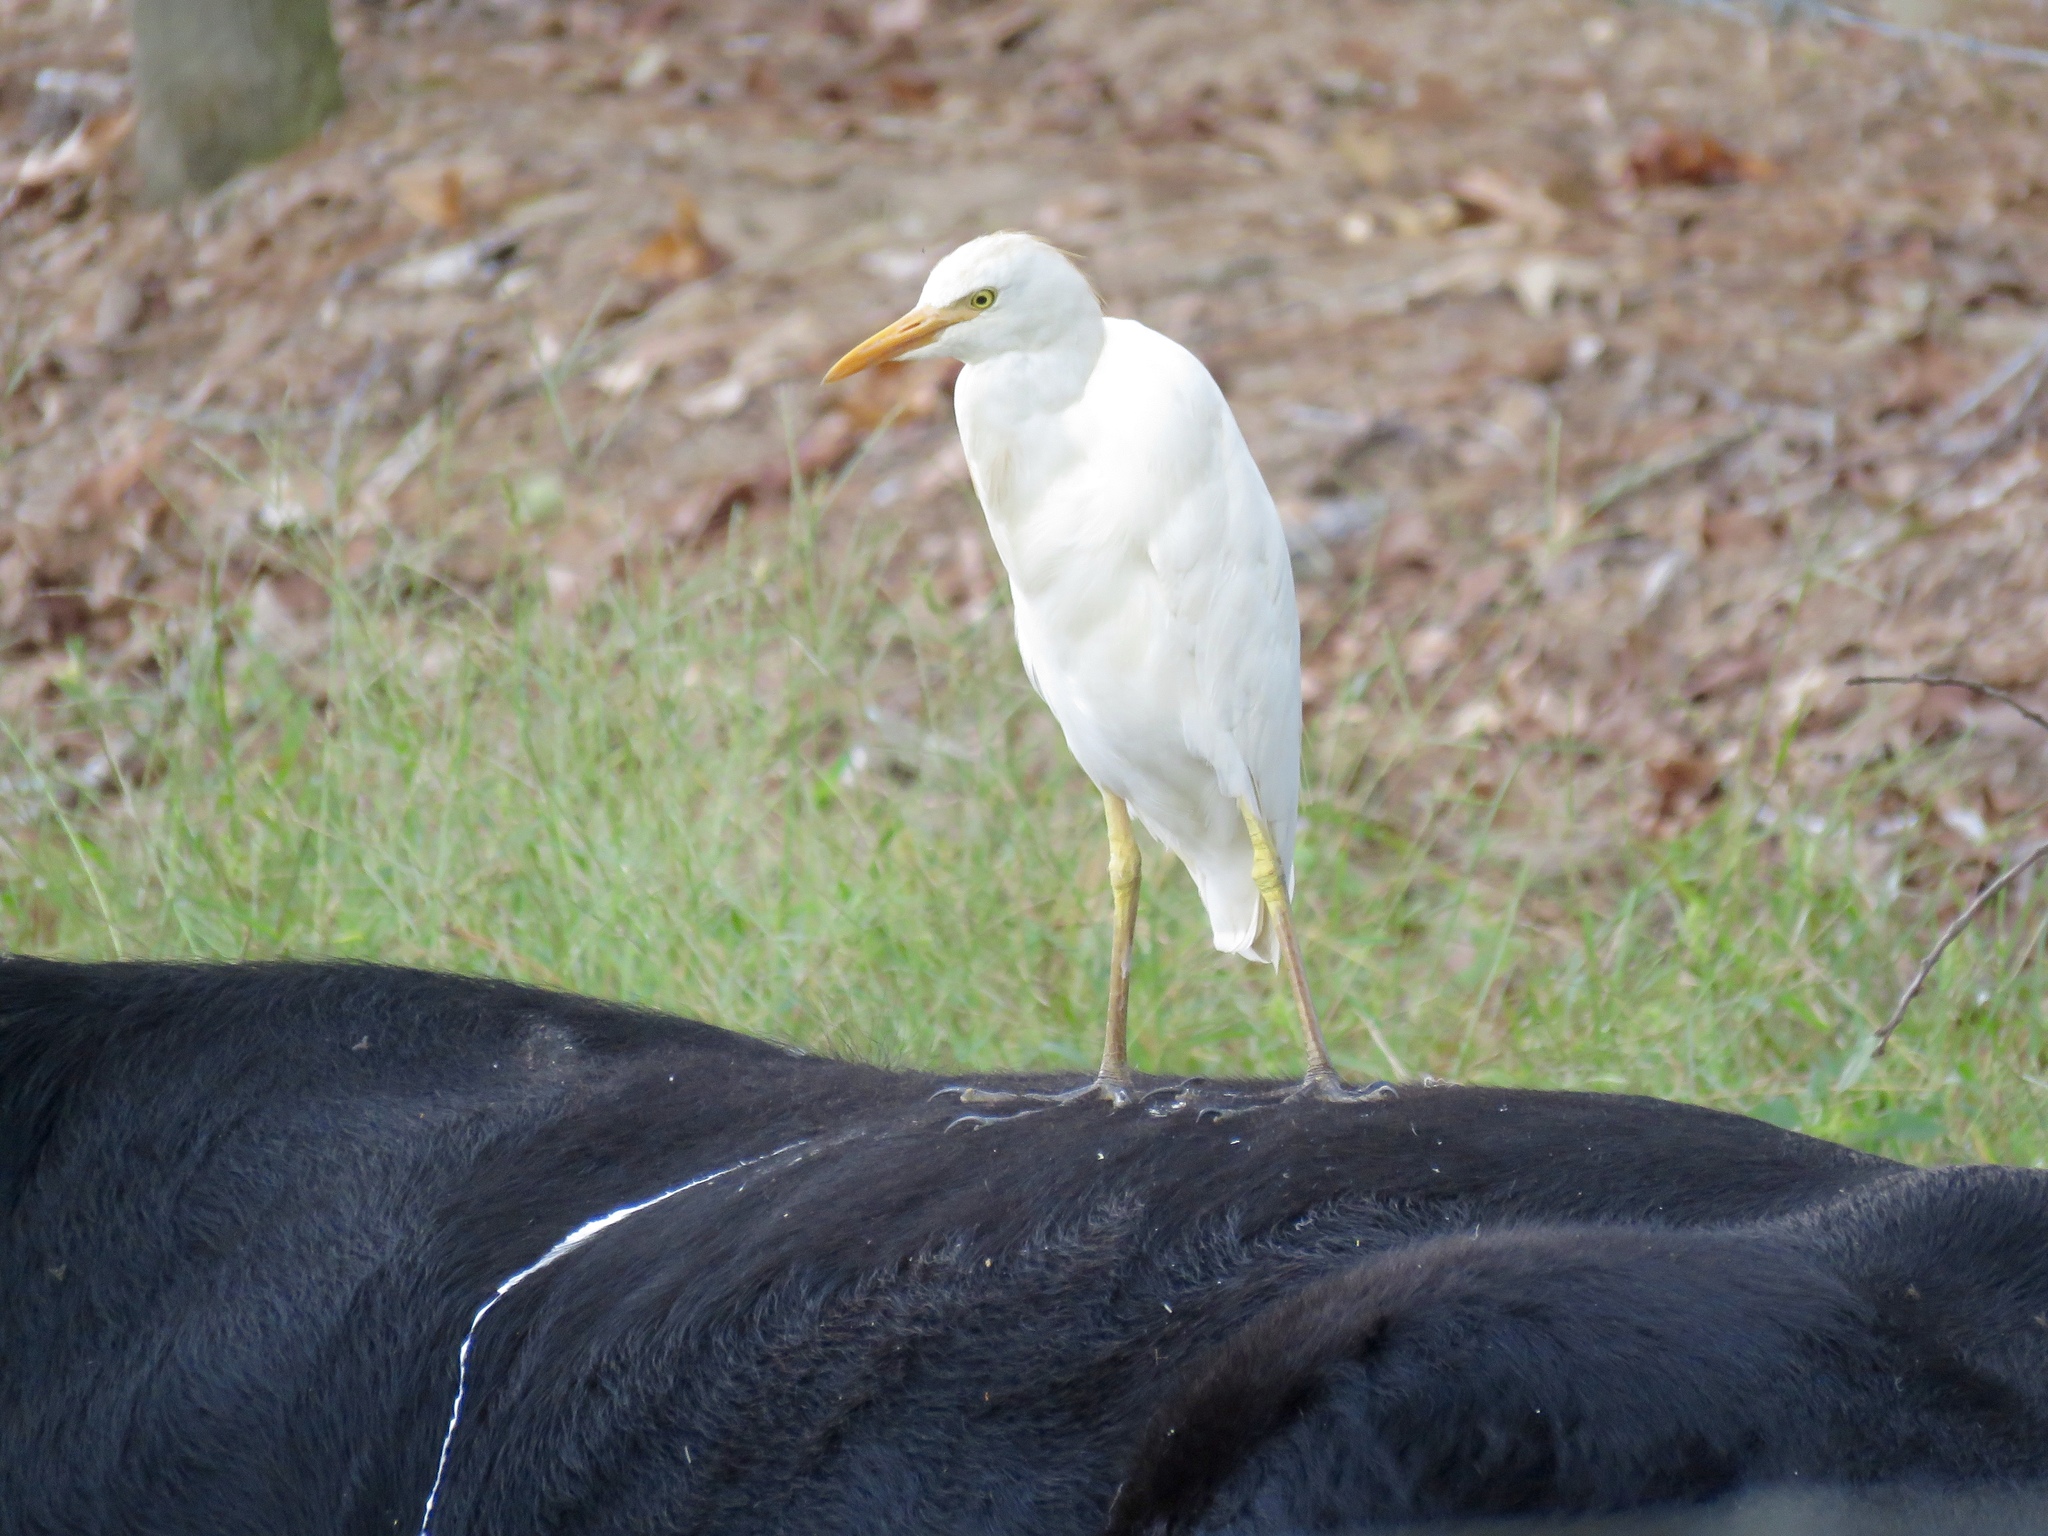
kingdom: Animalia
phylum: Chordata
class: Aves
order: Pelecaniformes
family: Ardeidae
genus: Bubulcus
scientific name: Bubulcus ibis
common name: Cattle egret
